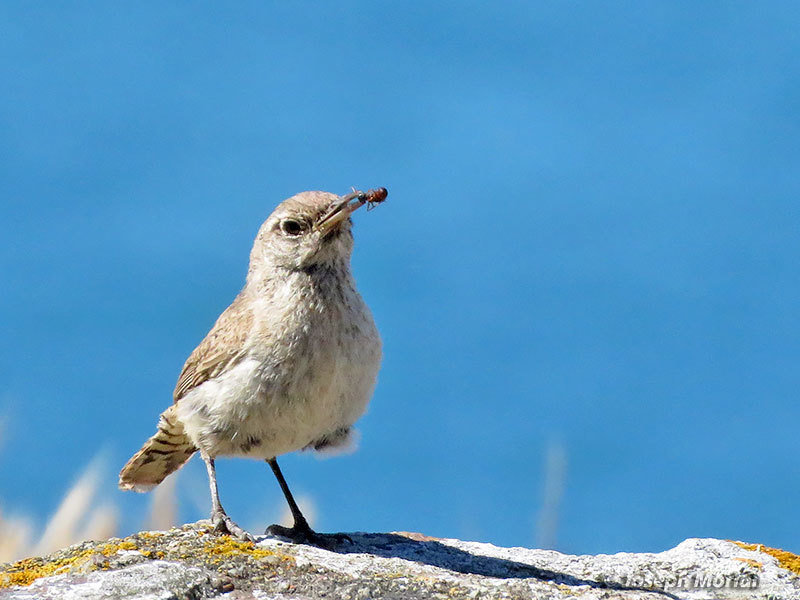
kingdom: Animalia
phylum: Chordata
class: Aves
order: Passeriformes
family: Troglodytidae
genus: Salpinctes
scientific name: Salpinctes obsoletus
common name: Rock wren
